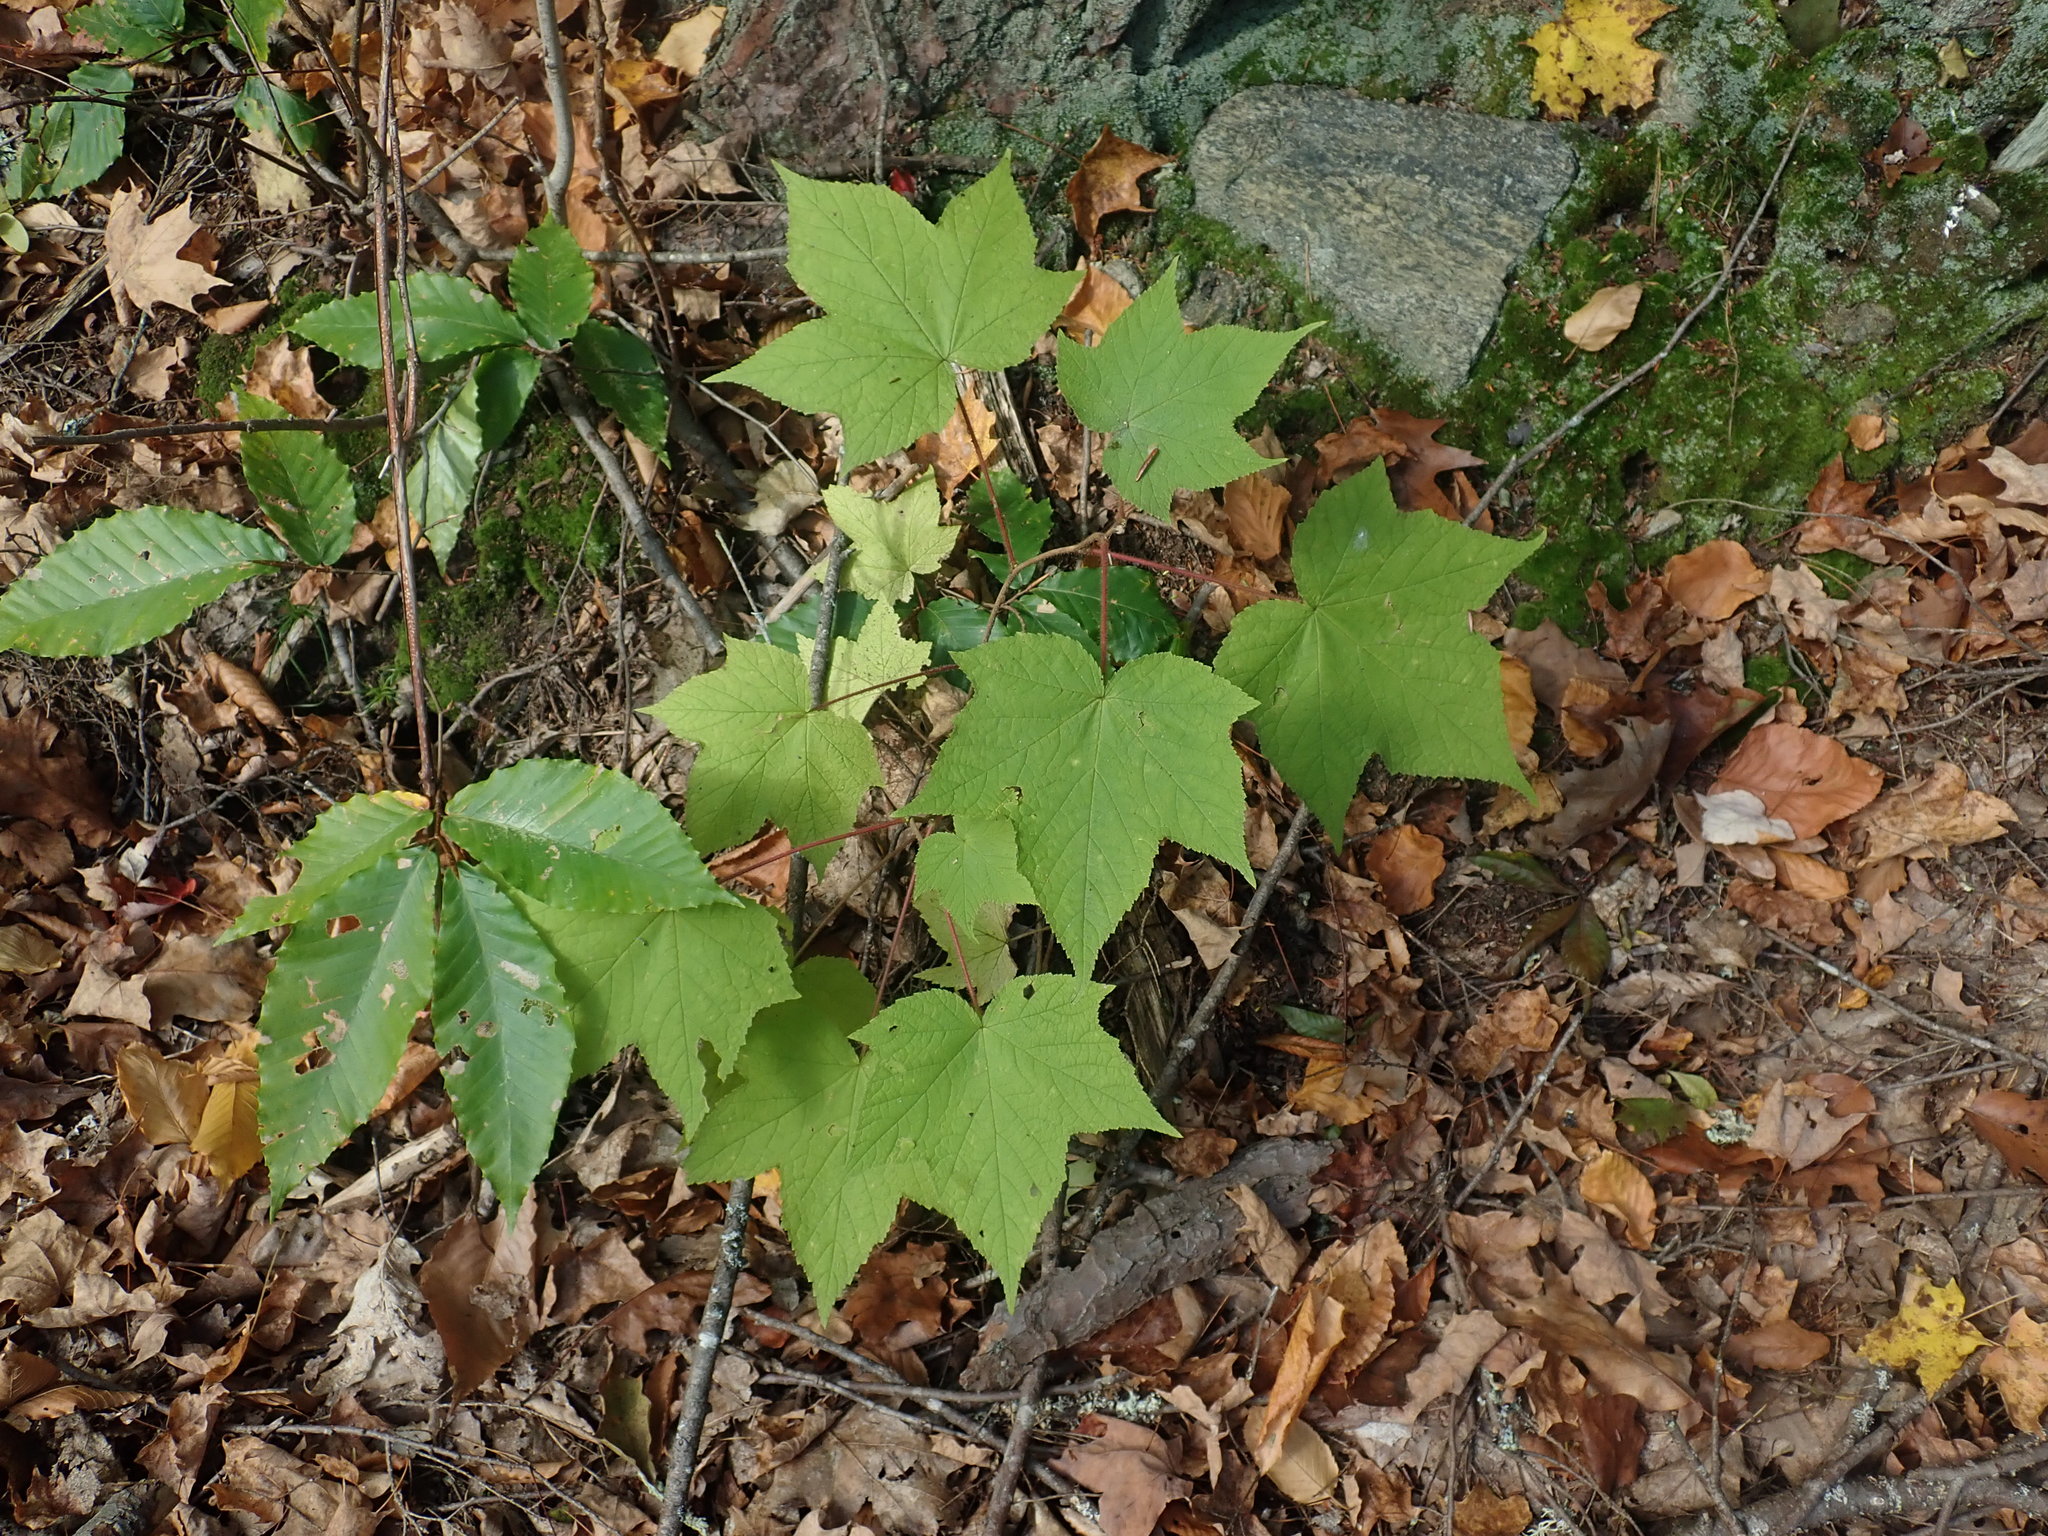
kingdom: Plantae
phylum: Tracheophyta
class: Magnoliopsida
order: Rosales
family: Rosaceae
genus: Rubus
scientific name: Rubus odoratus
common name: Purple-flowered raspberry
